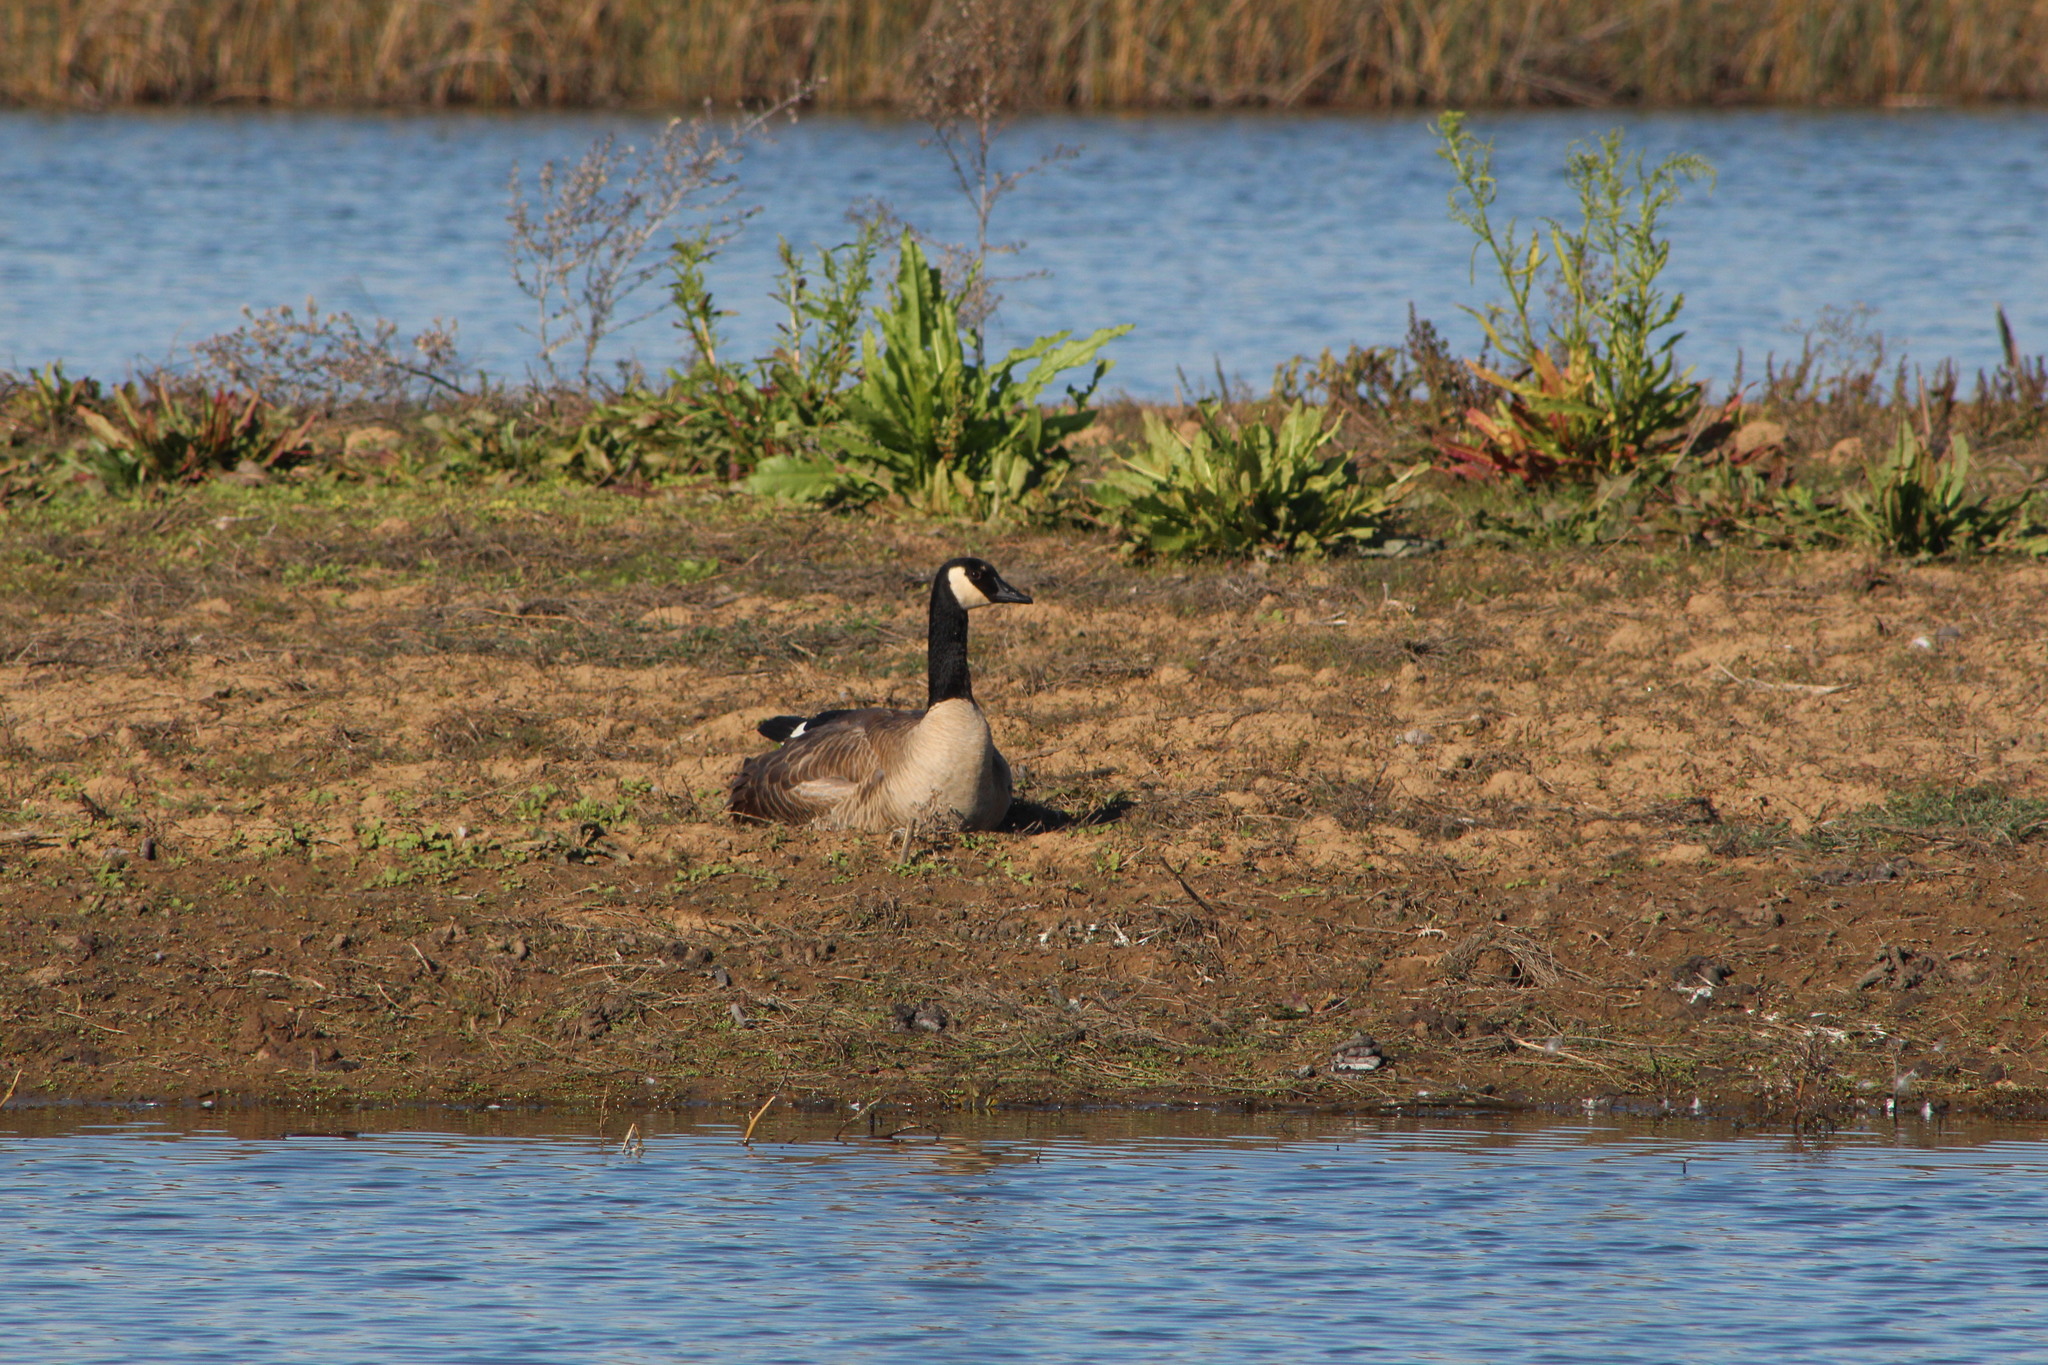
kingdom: Animalia
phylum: Chordata
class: Aves
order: Anseriformes
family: Anatidae
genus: Branta
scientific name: Branta canadensis
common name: Canada goose
